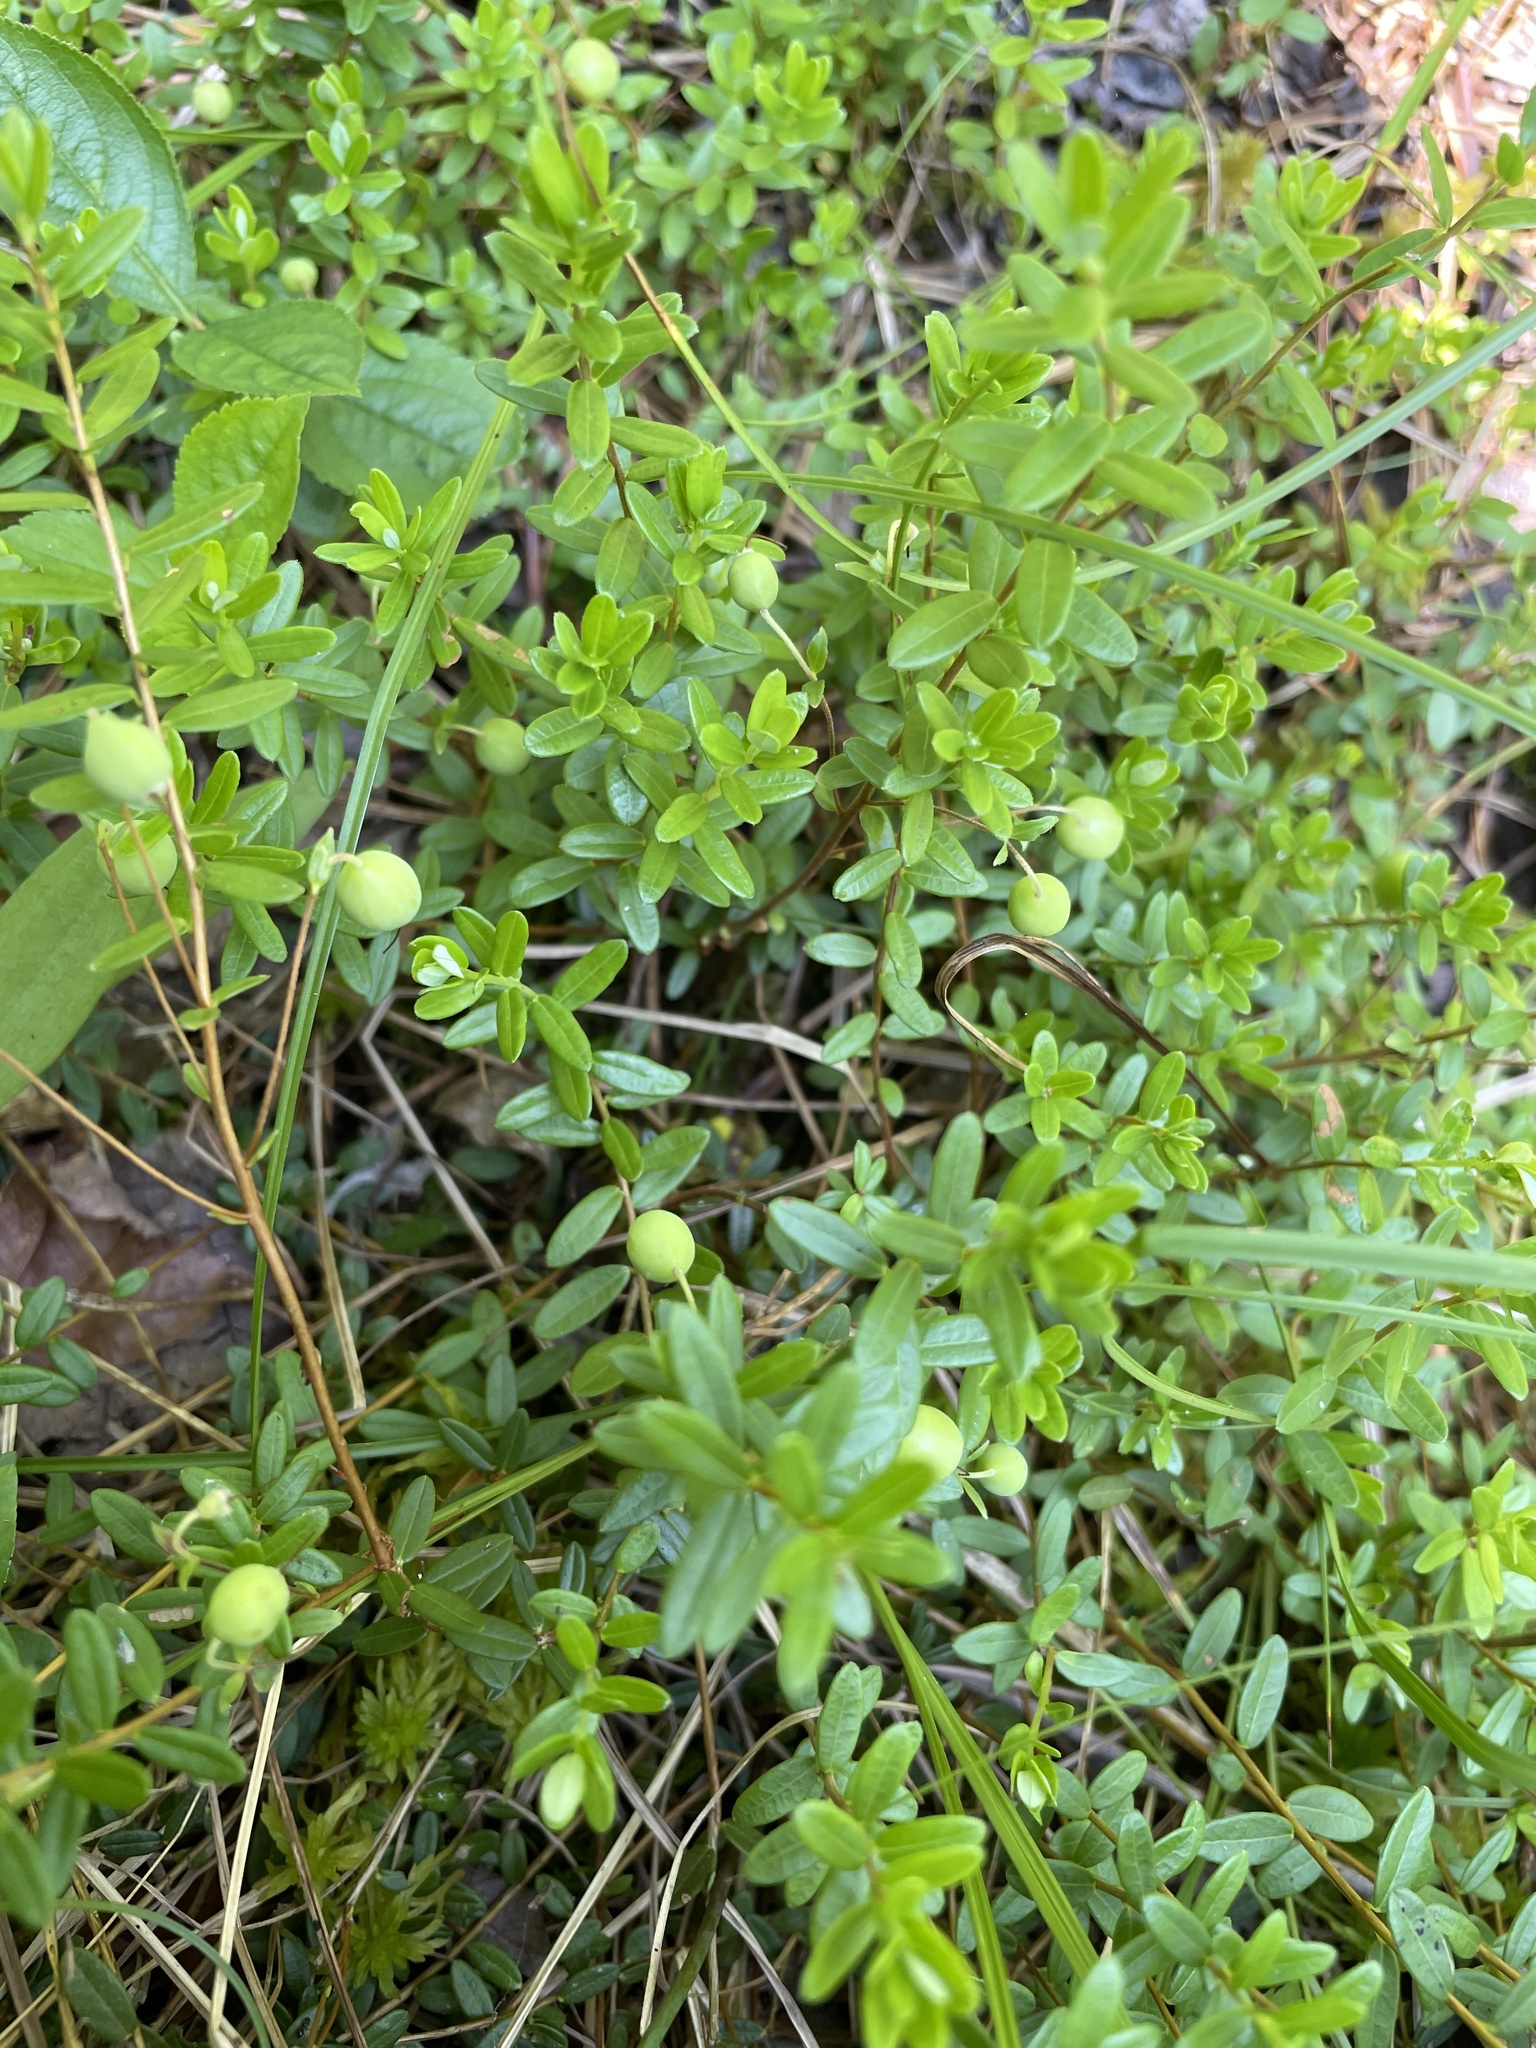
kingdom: Plantae
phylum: Tracheophyta
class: Magnoliopsida
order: Ericales
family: Ericaceae
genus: Vaccinium
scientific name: Vaccinium macrocarpon
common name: American cranberry
